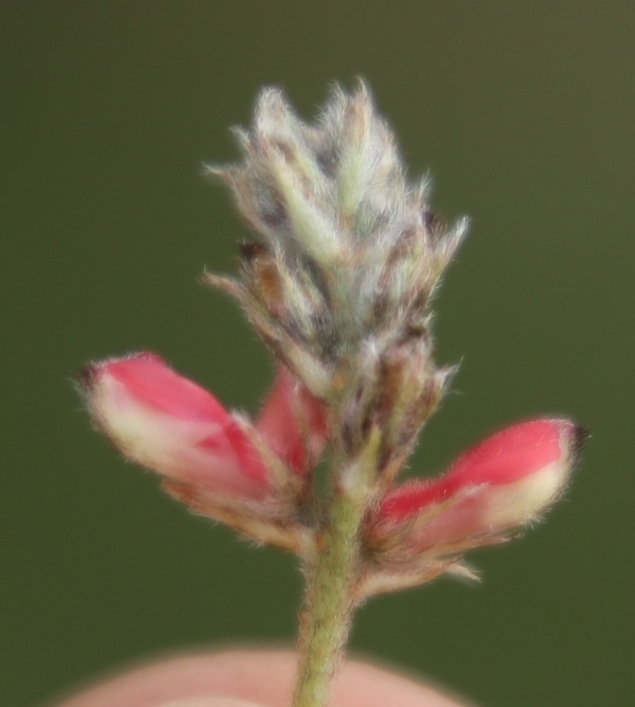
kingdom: Plantae
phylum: Tracheophyta
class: Magnoliopsida
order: Fabales
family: Fabaceae
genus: Indigofera
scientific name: Indigofera melanadenia
